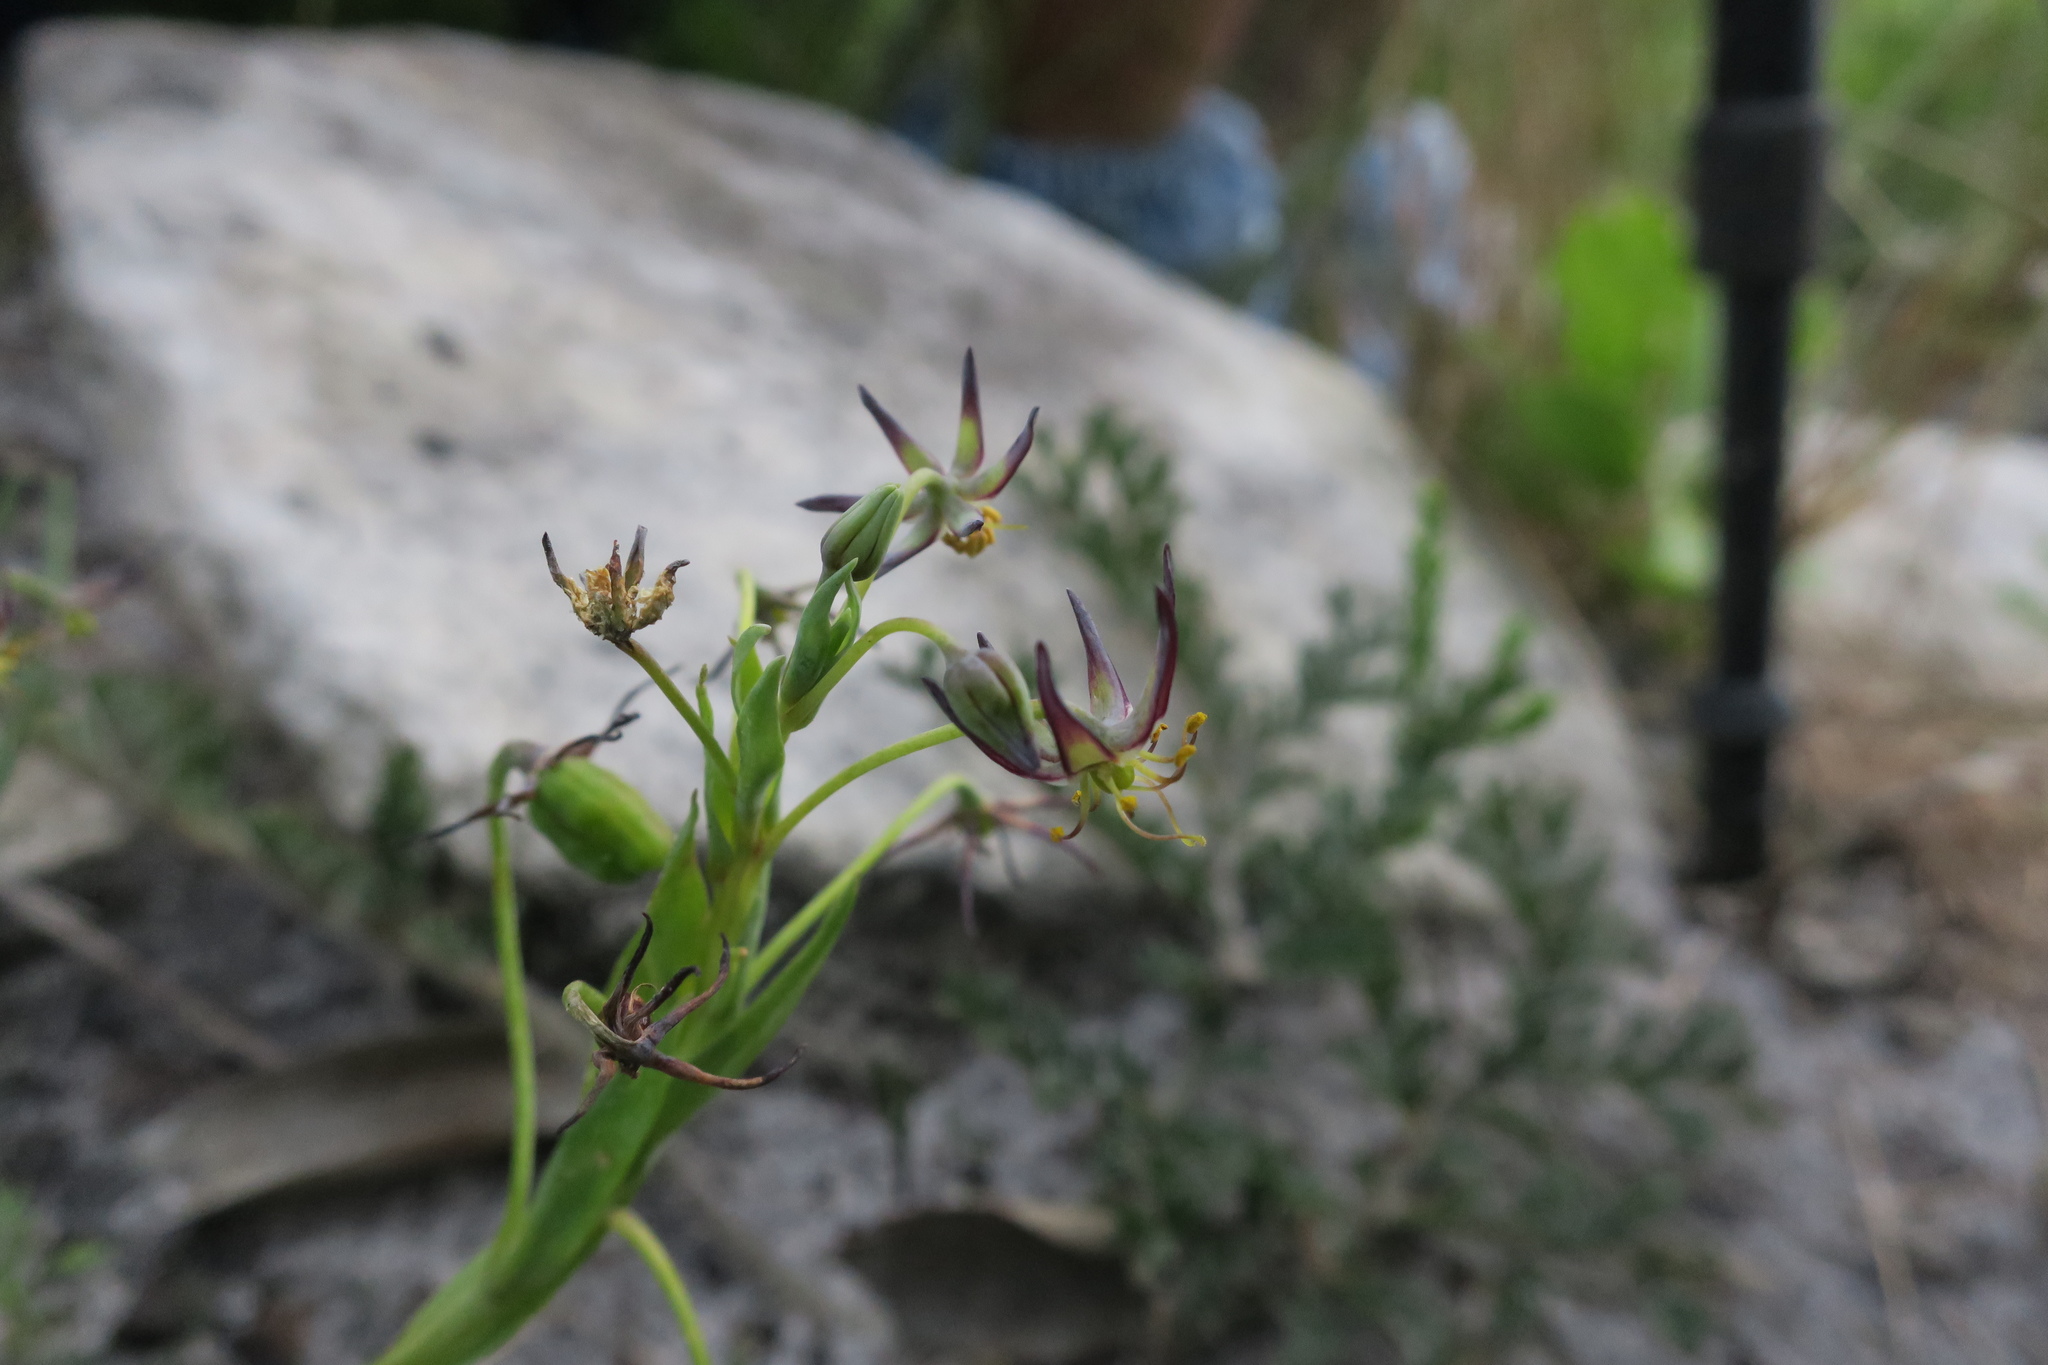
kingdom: Plantae
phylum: Tracheophyta
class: Liliopsida
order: Liliales
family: Colchicaceae
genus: Ornithoglossum
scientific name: Ornithoglossum viride
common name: Cape poison-onion
